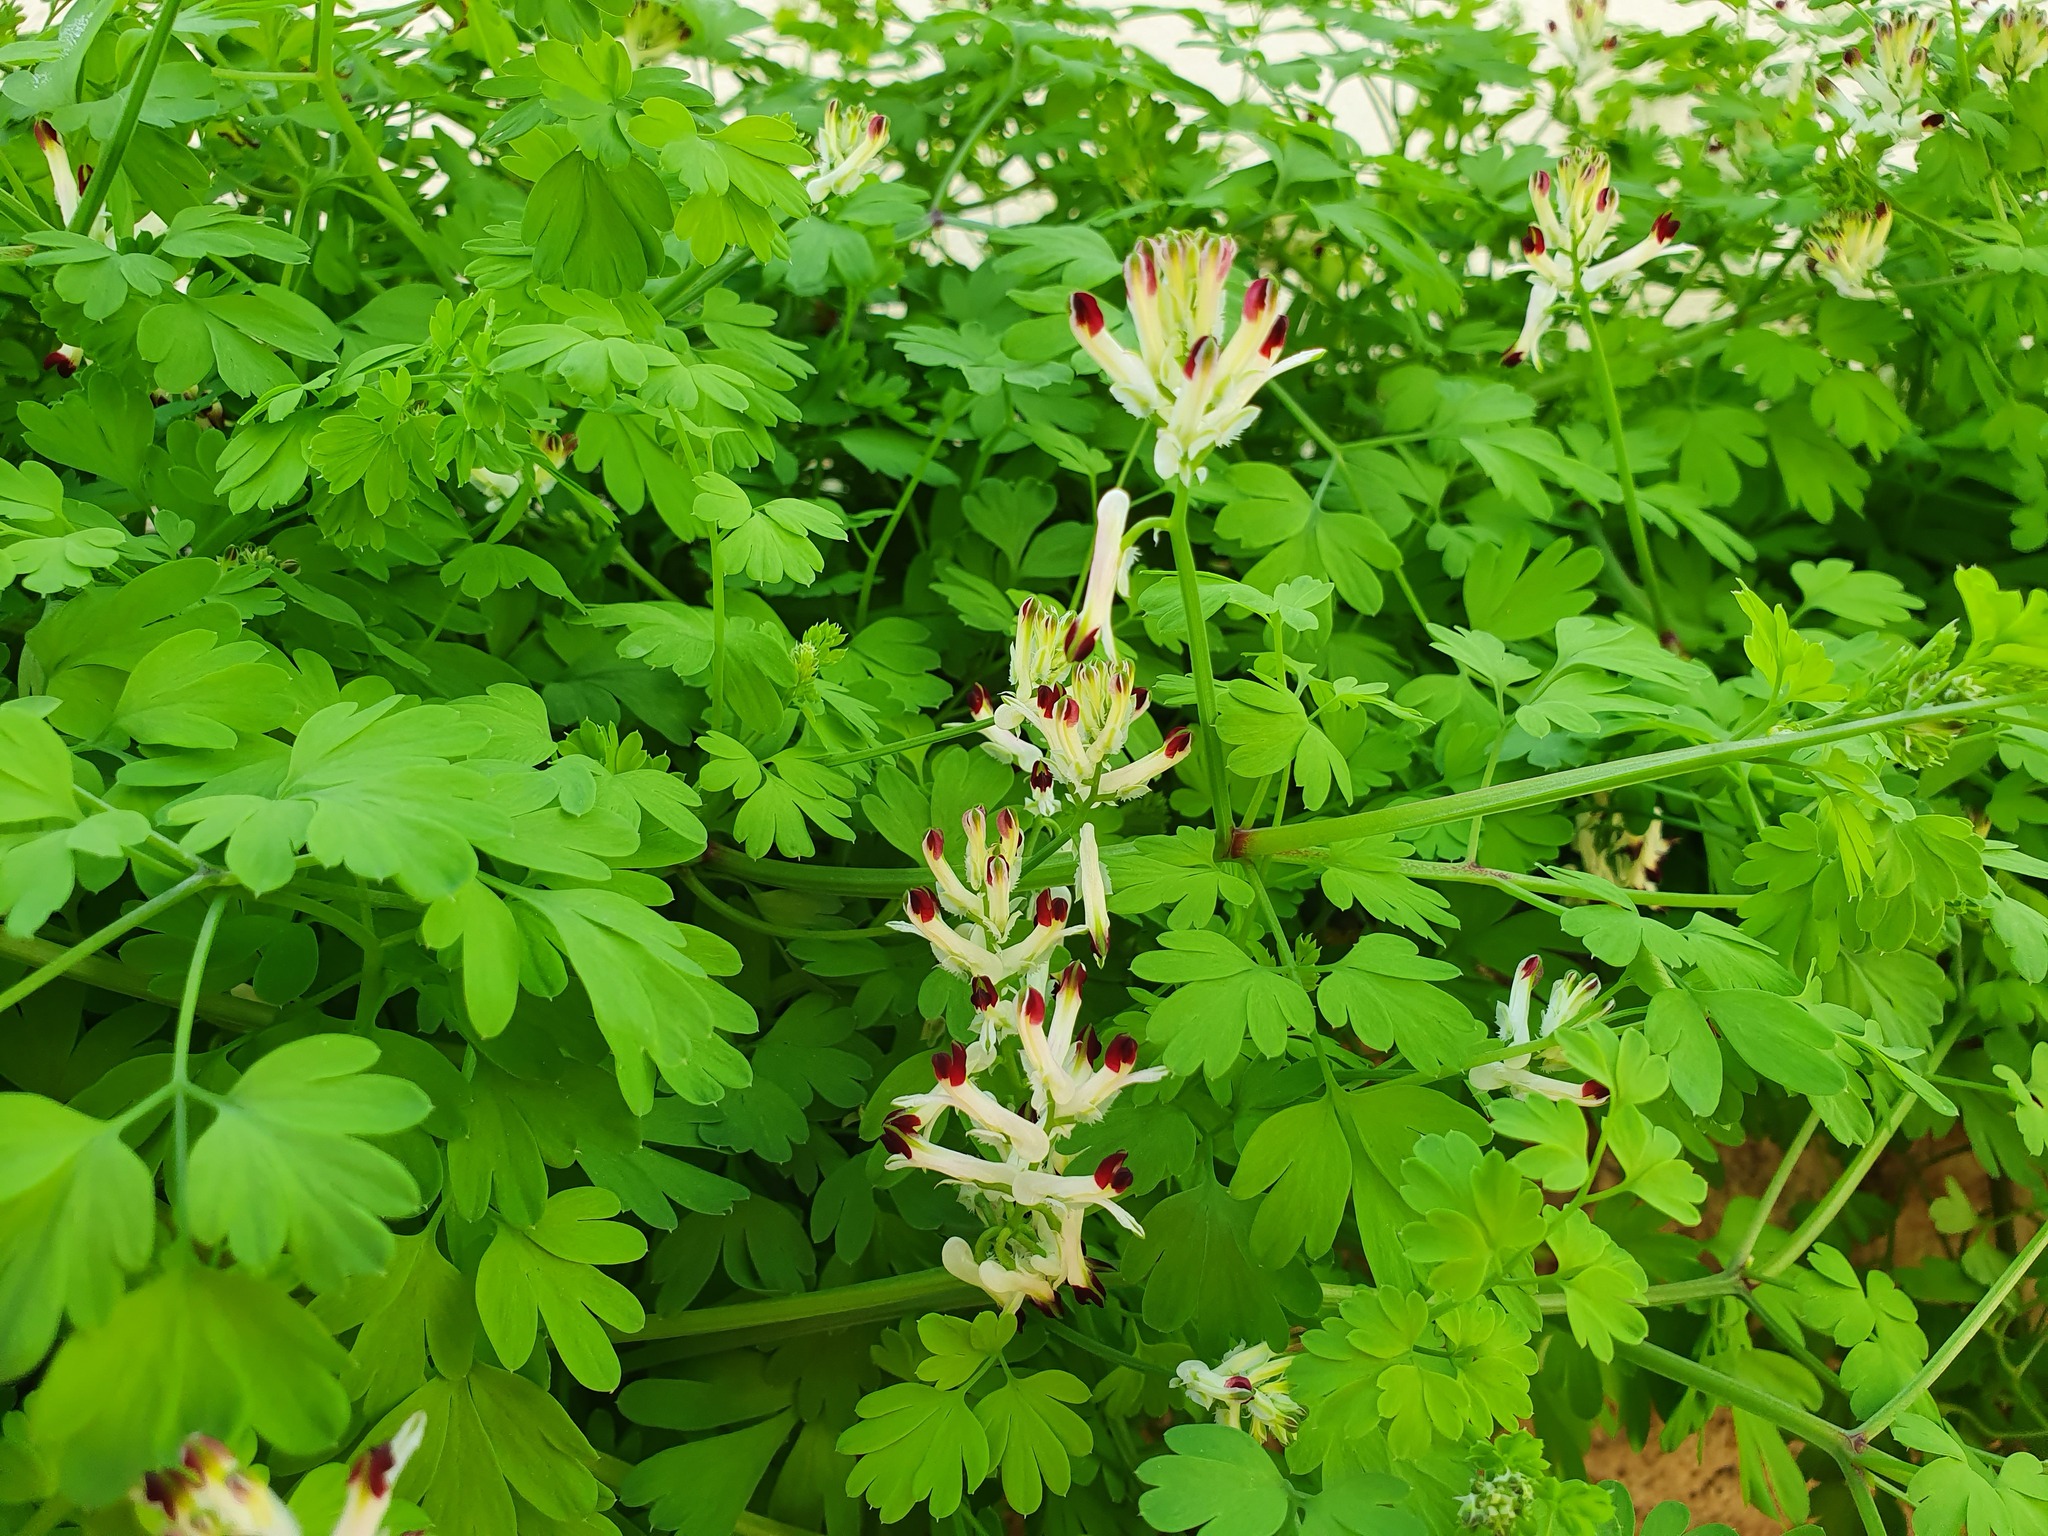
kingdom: Plantae
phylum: Tracheophyta
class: Magnoliopsida
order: Ranunculales
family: Papaveraceae
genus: Fumaria
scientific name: Fumaria flabellata
